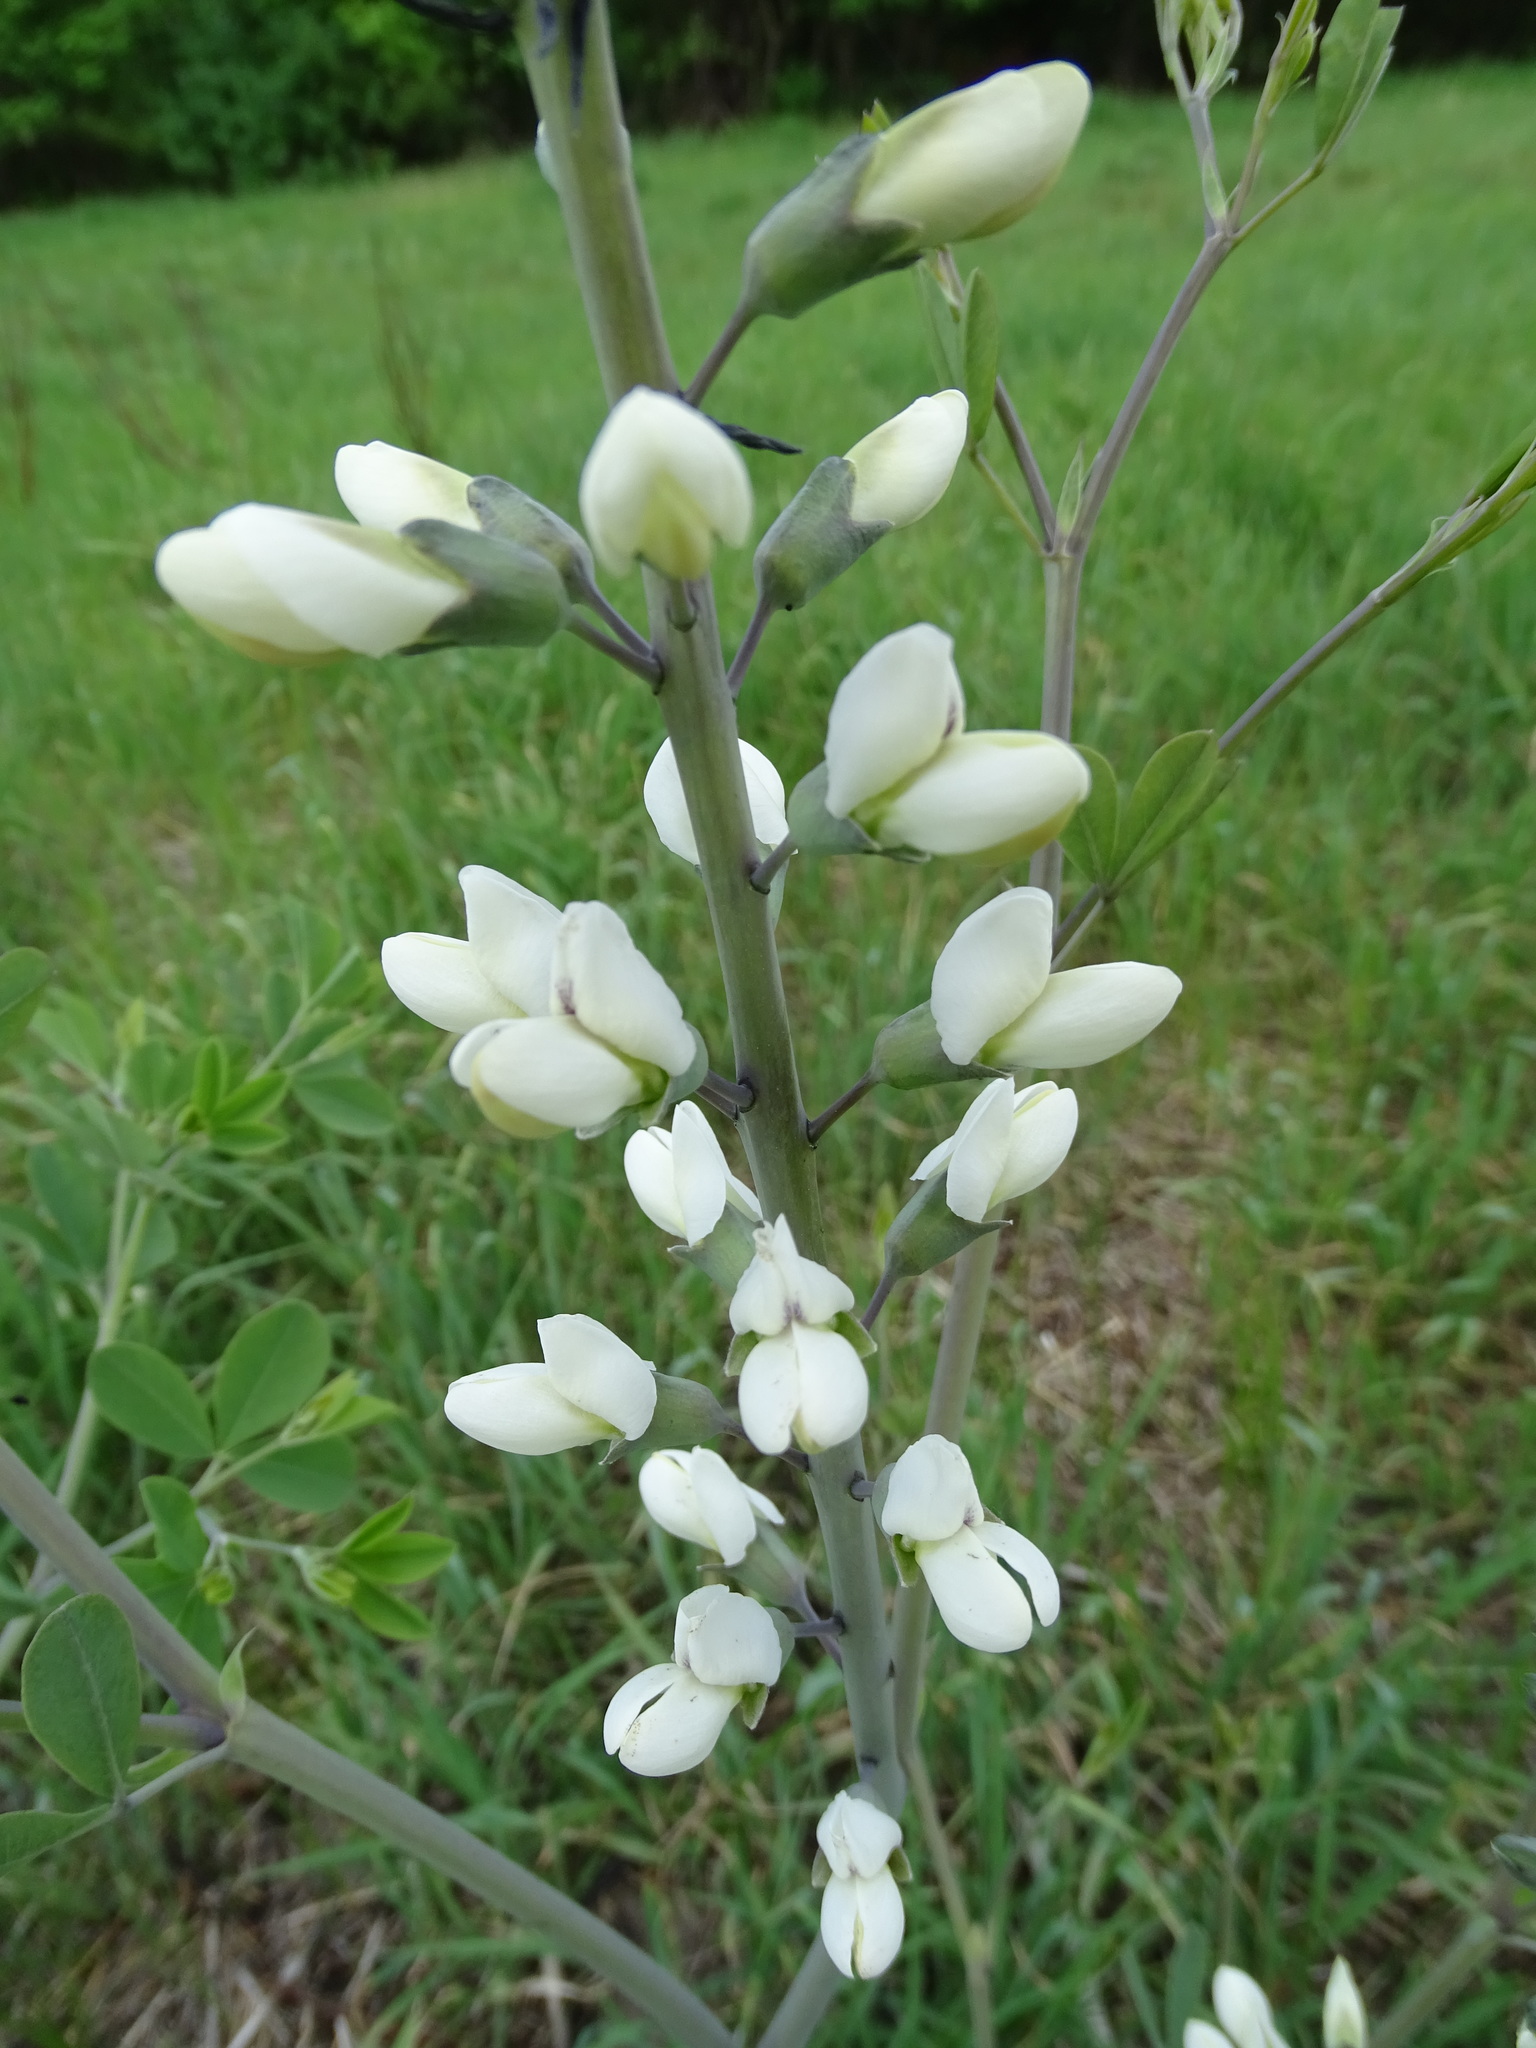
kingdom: Plantae
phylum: Tracheophyta
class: Magnoliopsida
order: Fabales
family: Fabaceae
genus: Baptisia
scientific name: Baptisia alba
